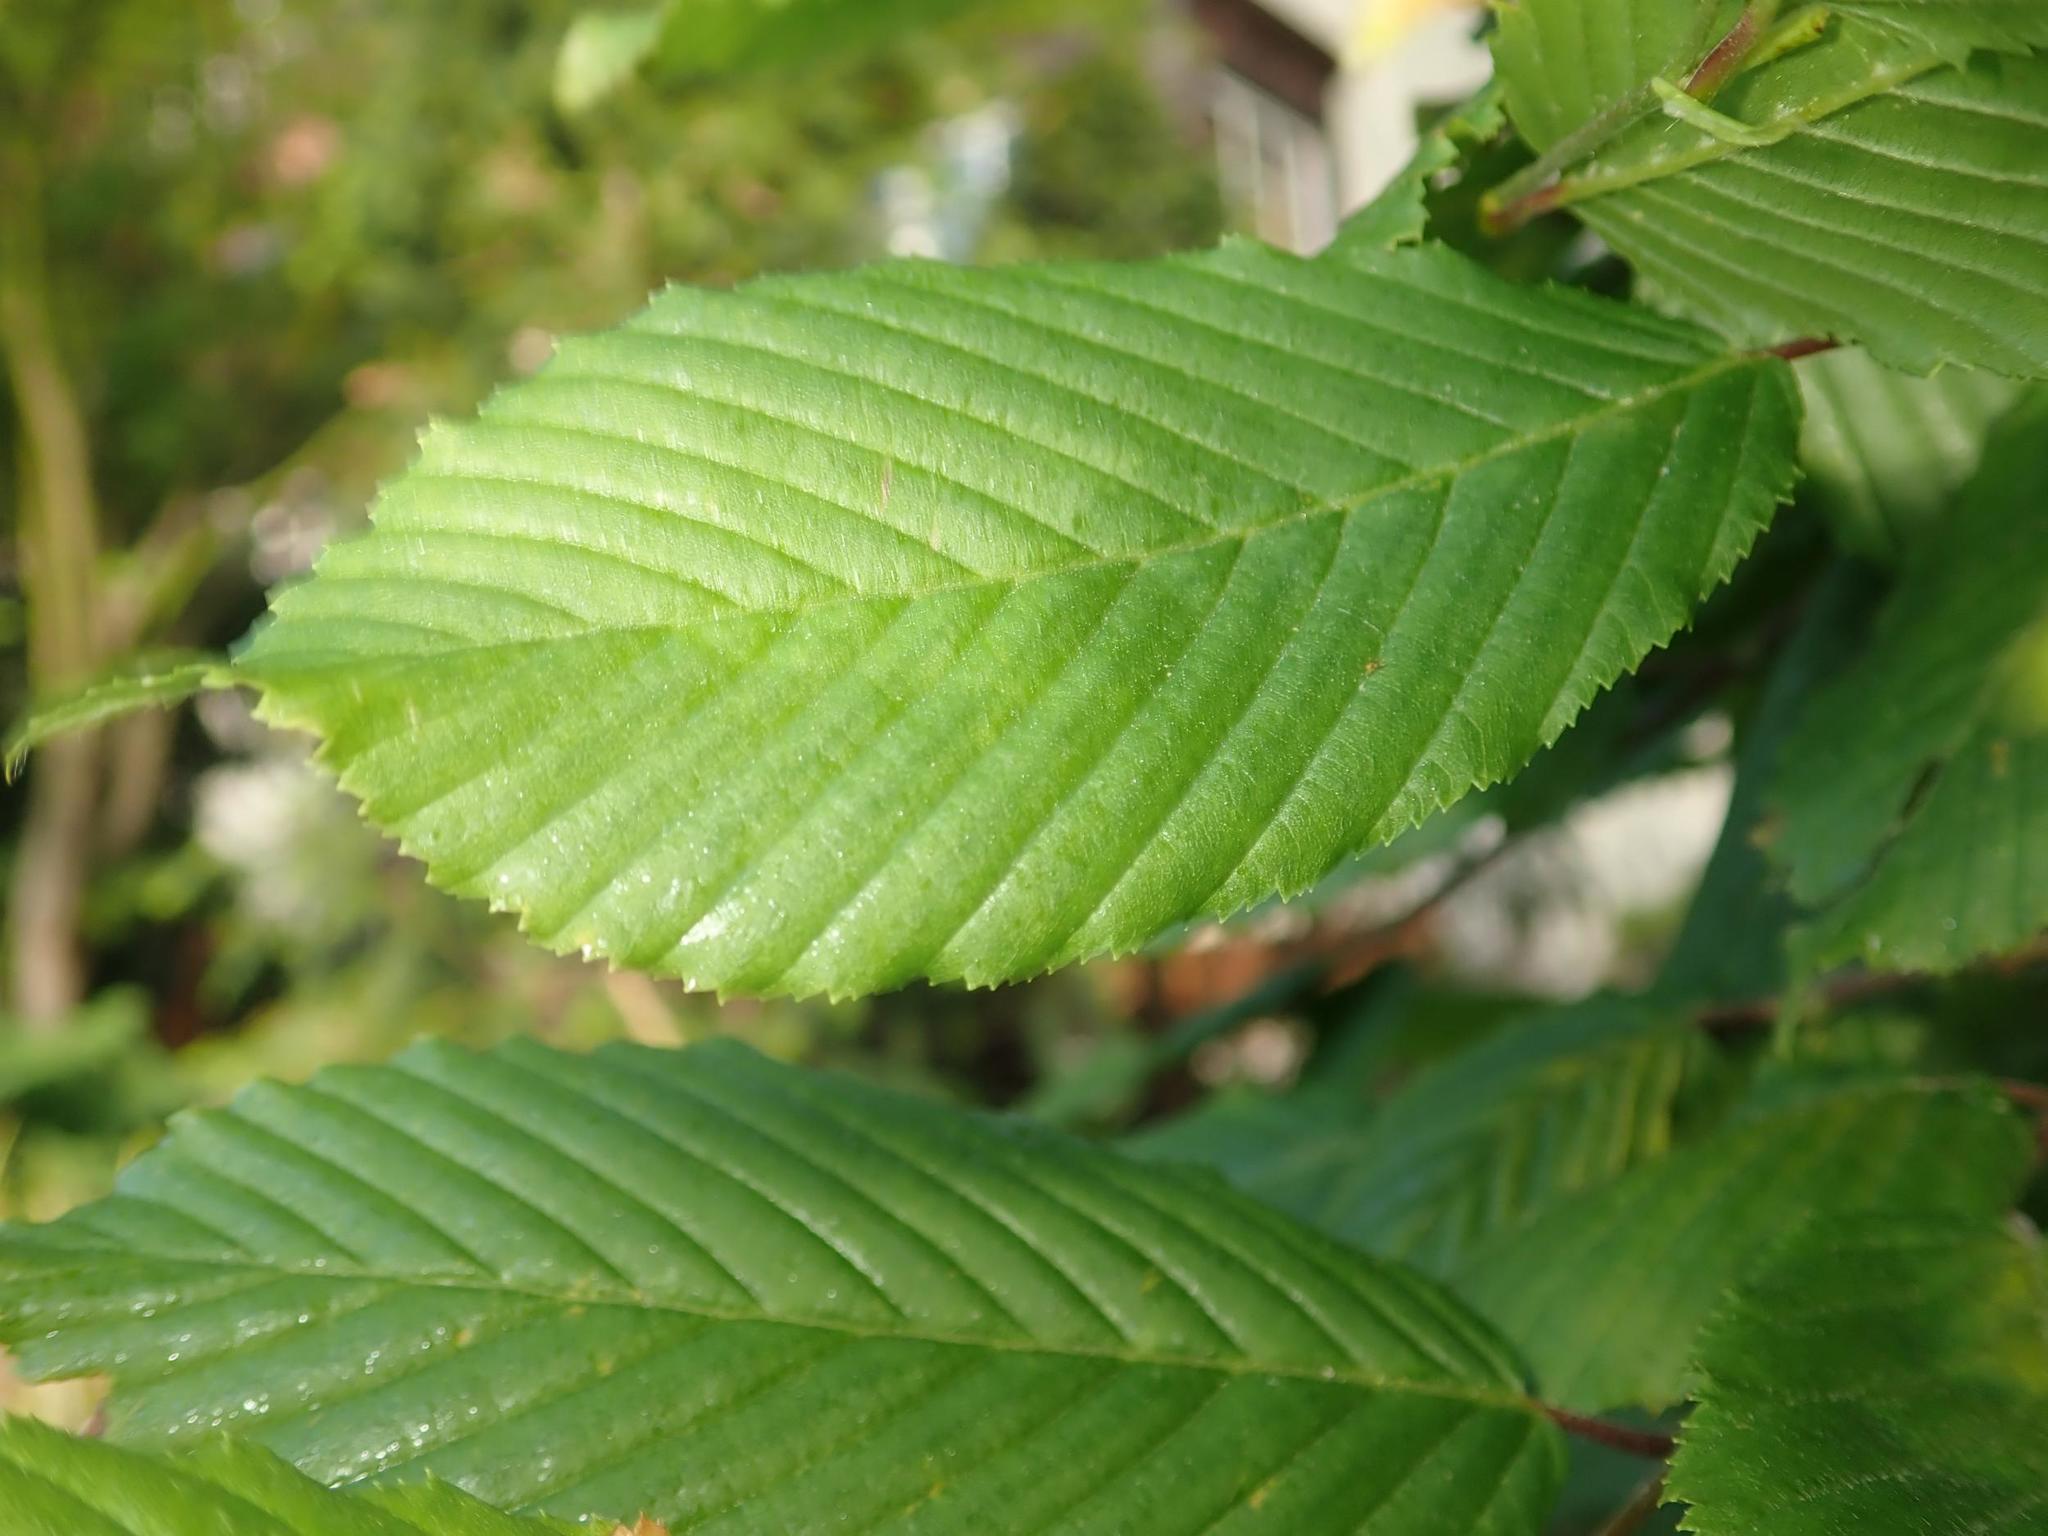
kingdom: Plantae
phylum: Tracheophyta
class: Magnoliopsida
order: Fagales
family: Betulaceae
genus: Carpinus
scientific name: Carpinus betulus
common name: Hornbeam
